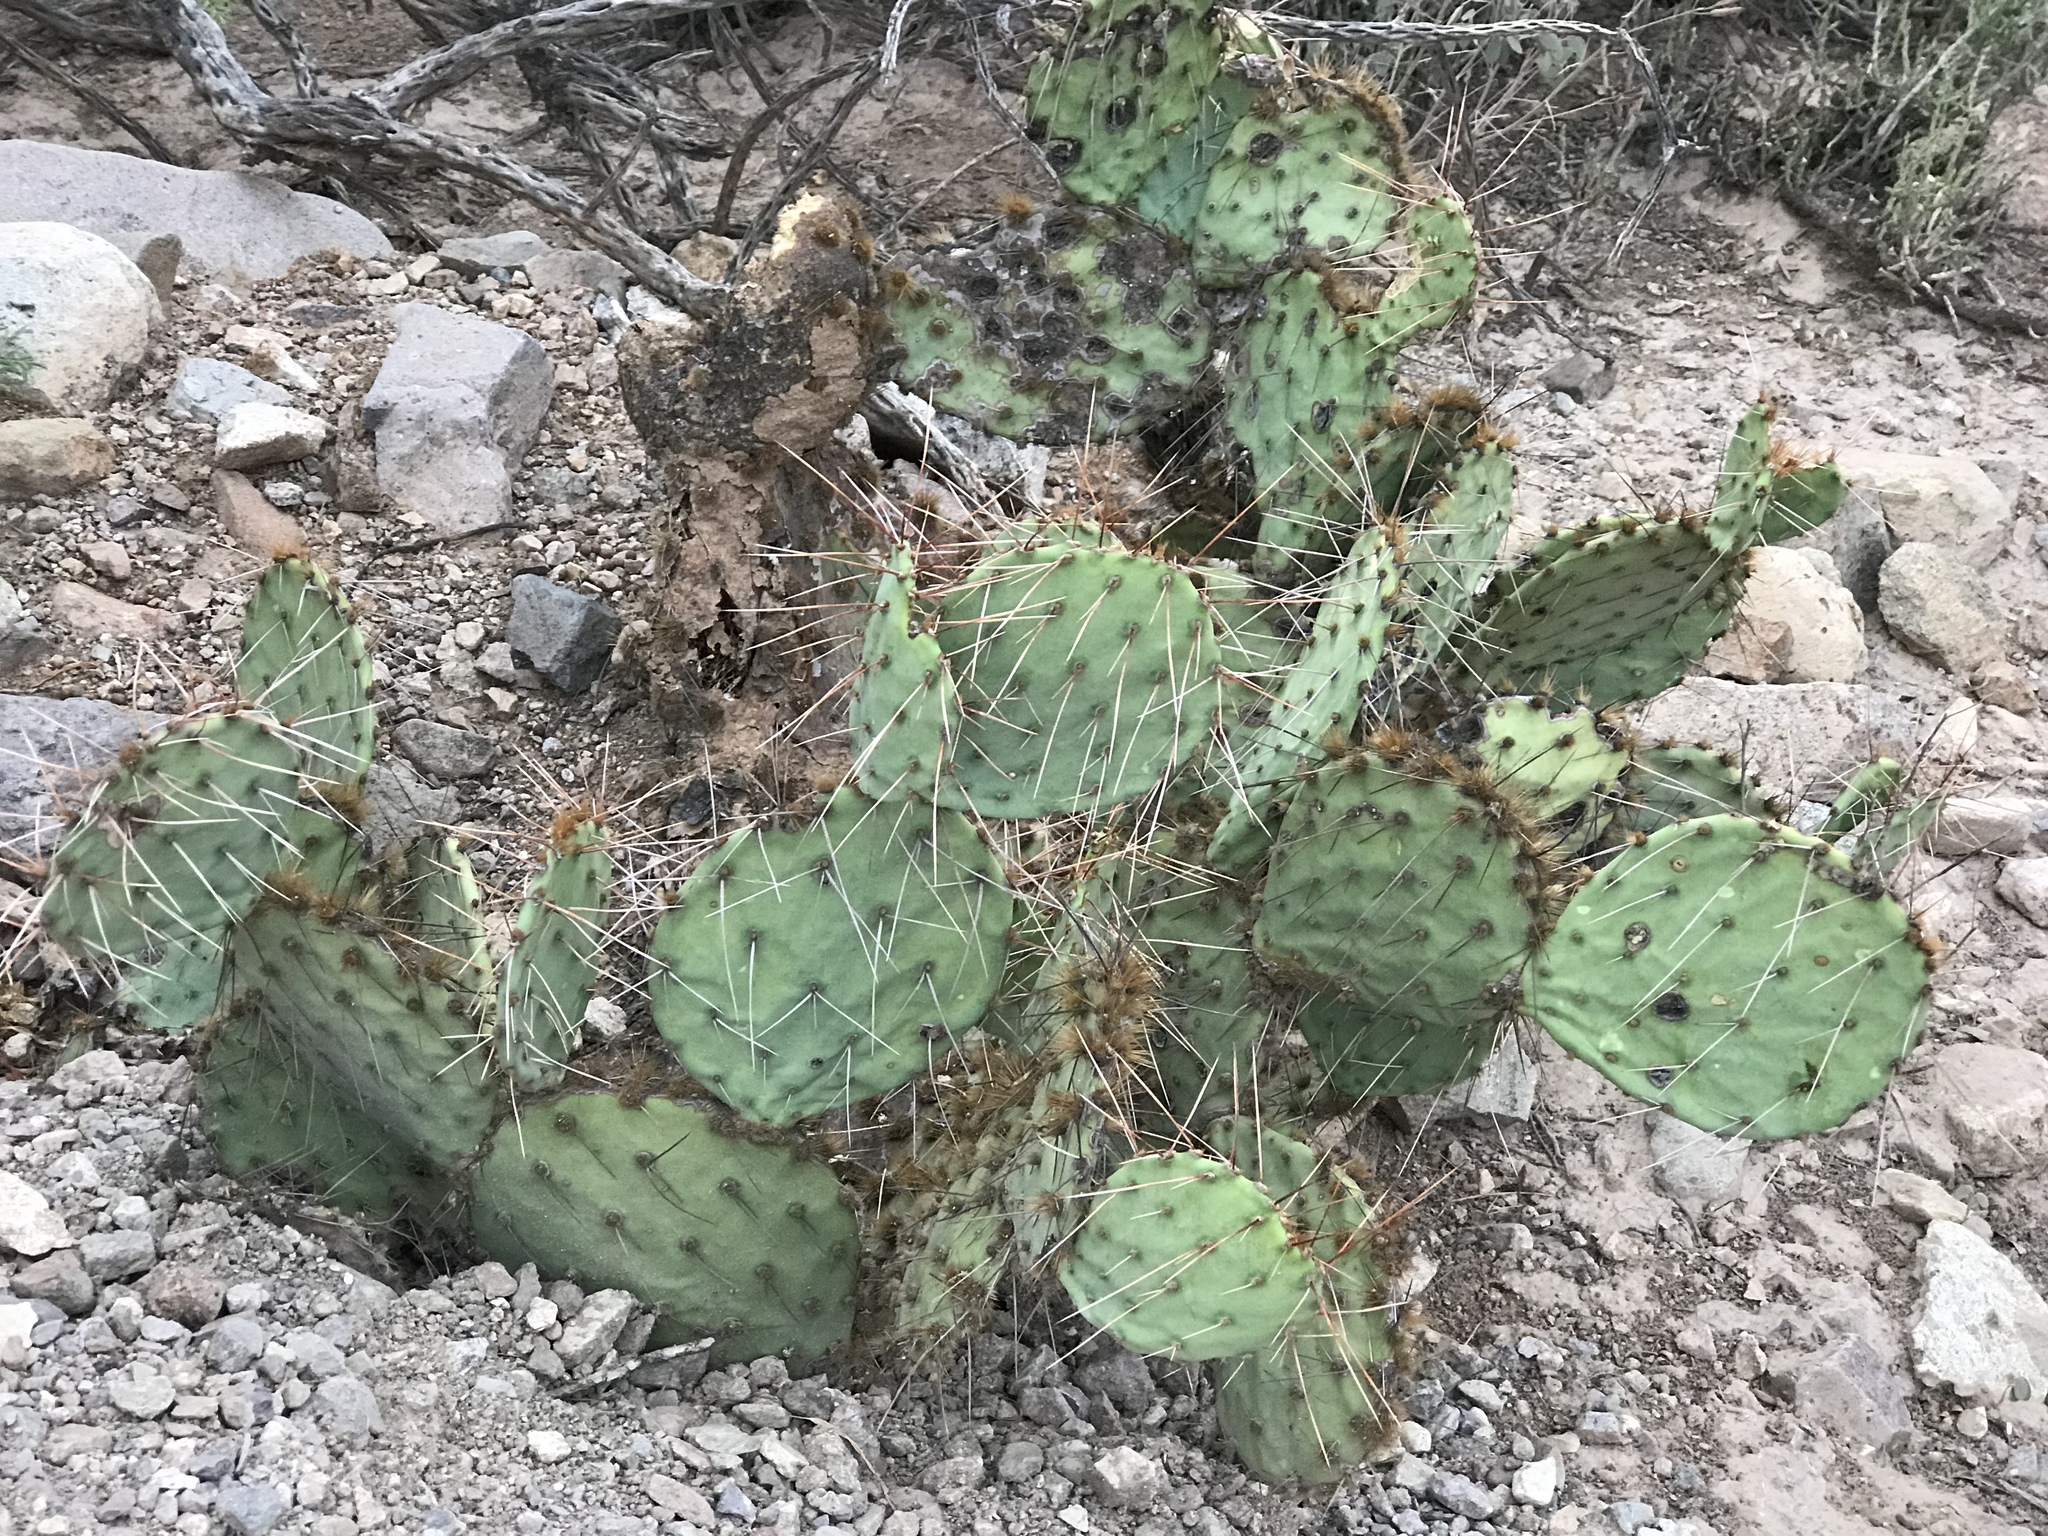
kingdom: Plantae
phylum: Tracheophyta
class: Magnoliopsida
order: Caryophyllales
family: Cactaceae
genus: Opuntia
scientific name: Opuntia phaeacantha
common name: New mexico prickly-pear
